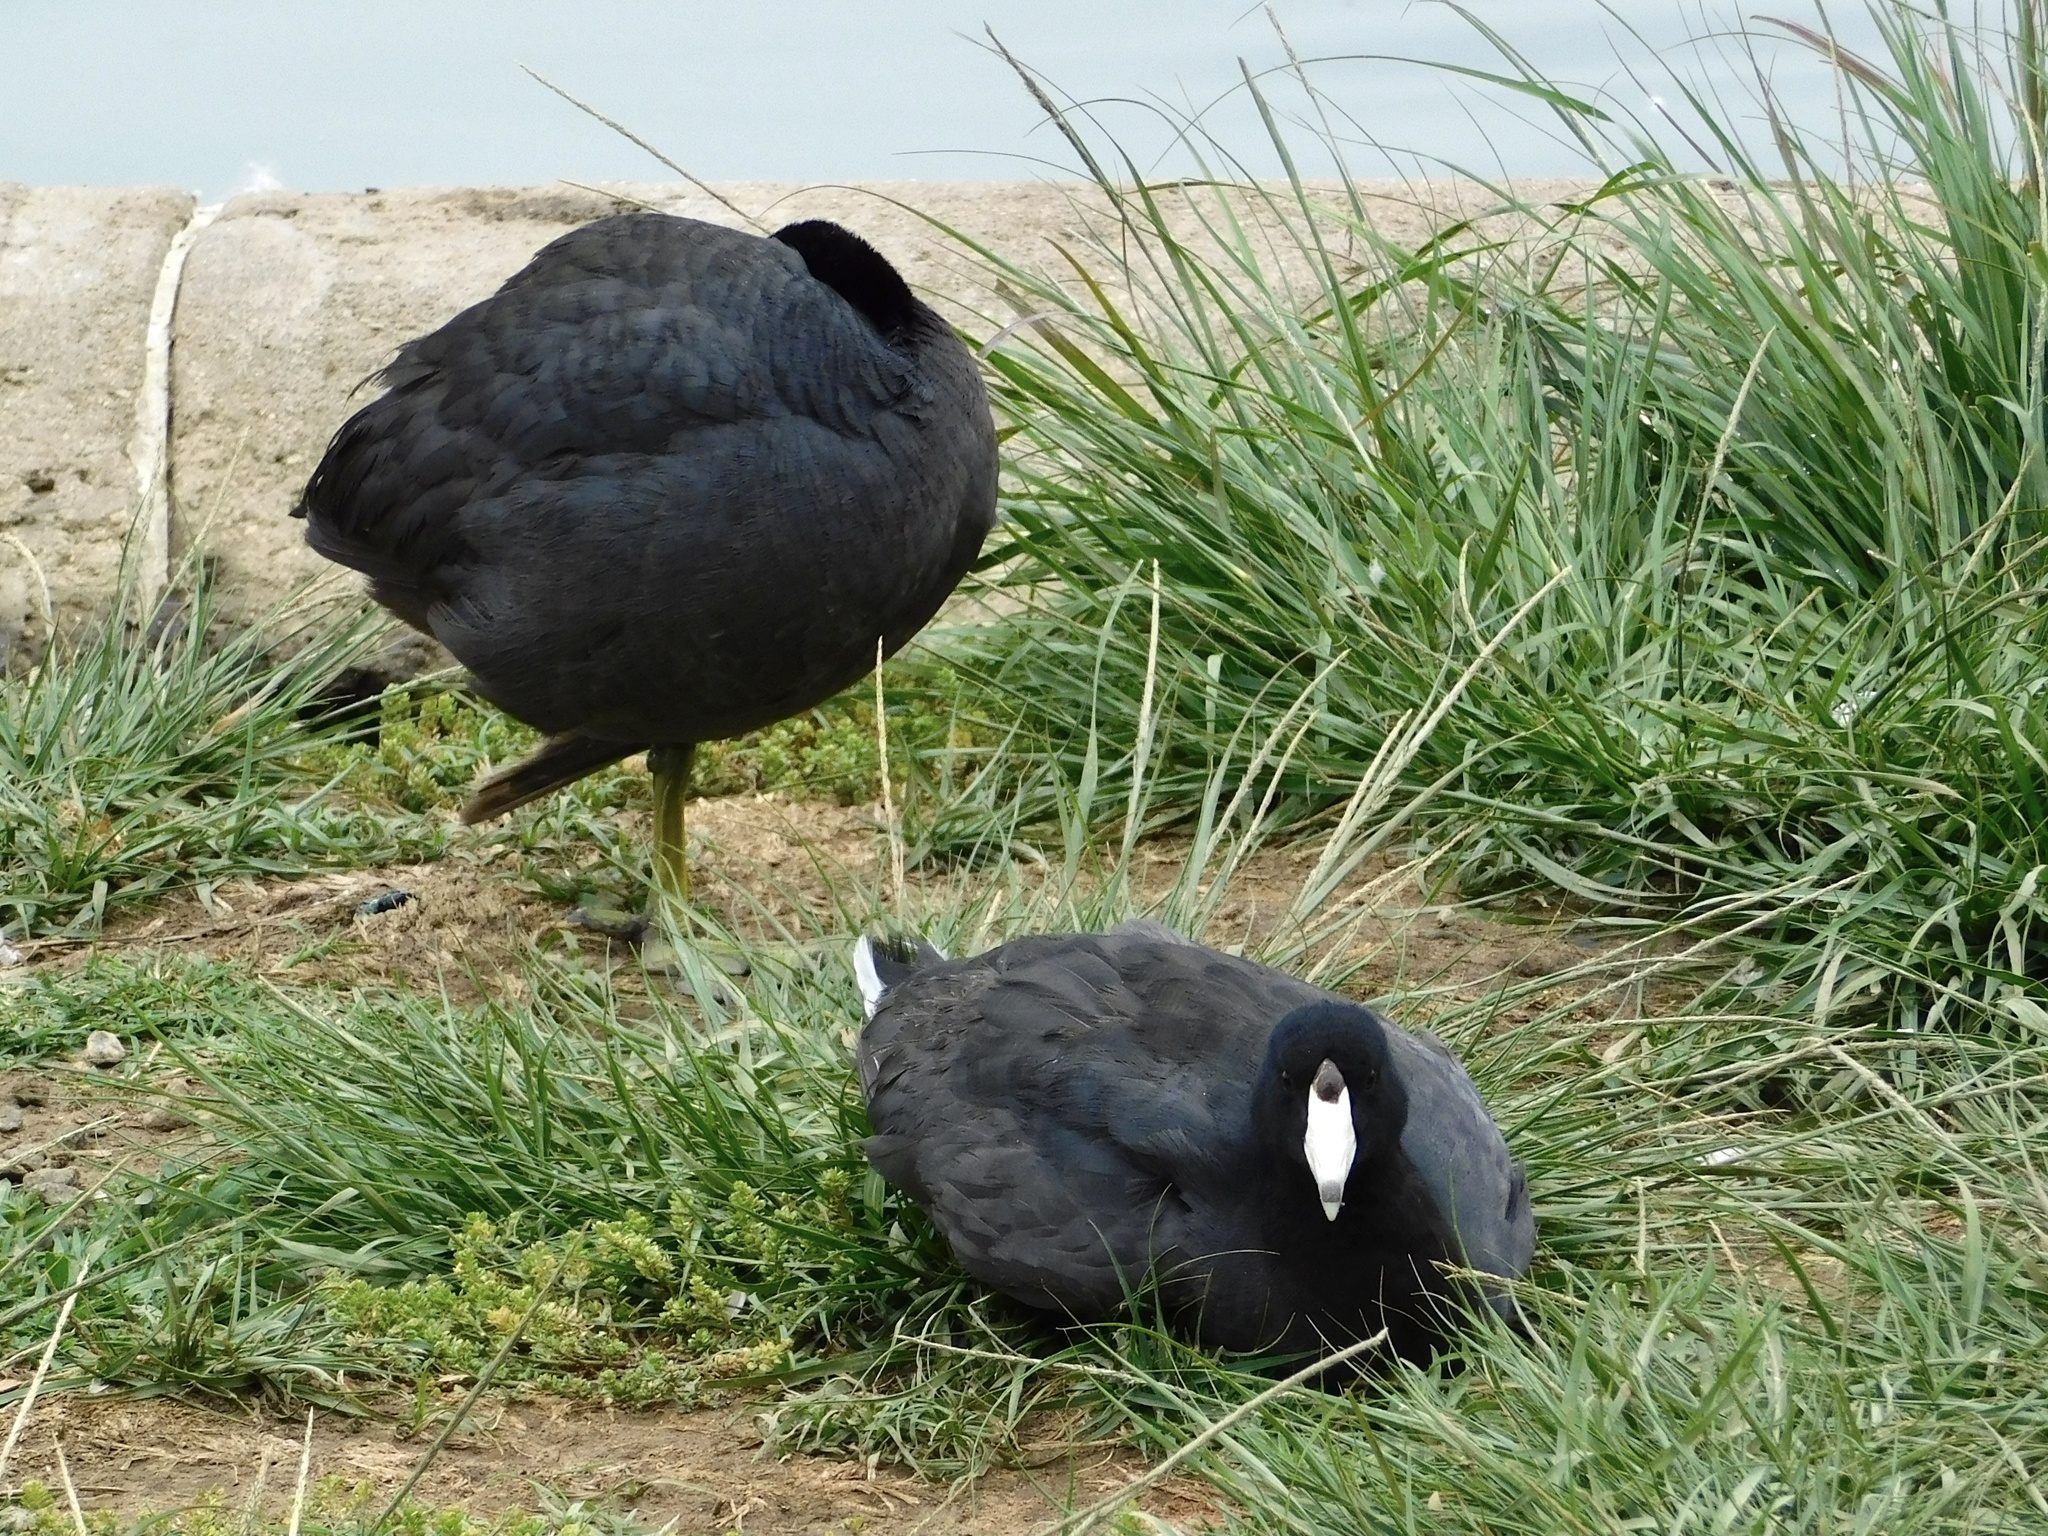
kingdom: Animalia
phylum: Chordata
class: Aves
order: Gruiformes
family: Rallidae
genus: Fulica
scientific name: Fulica americana
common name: American coot
